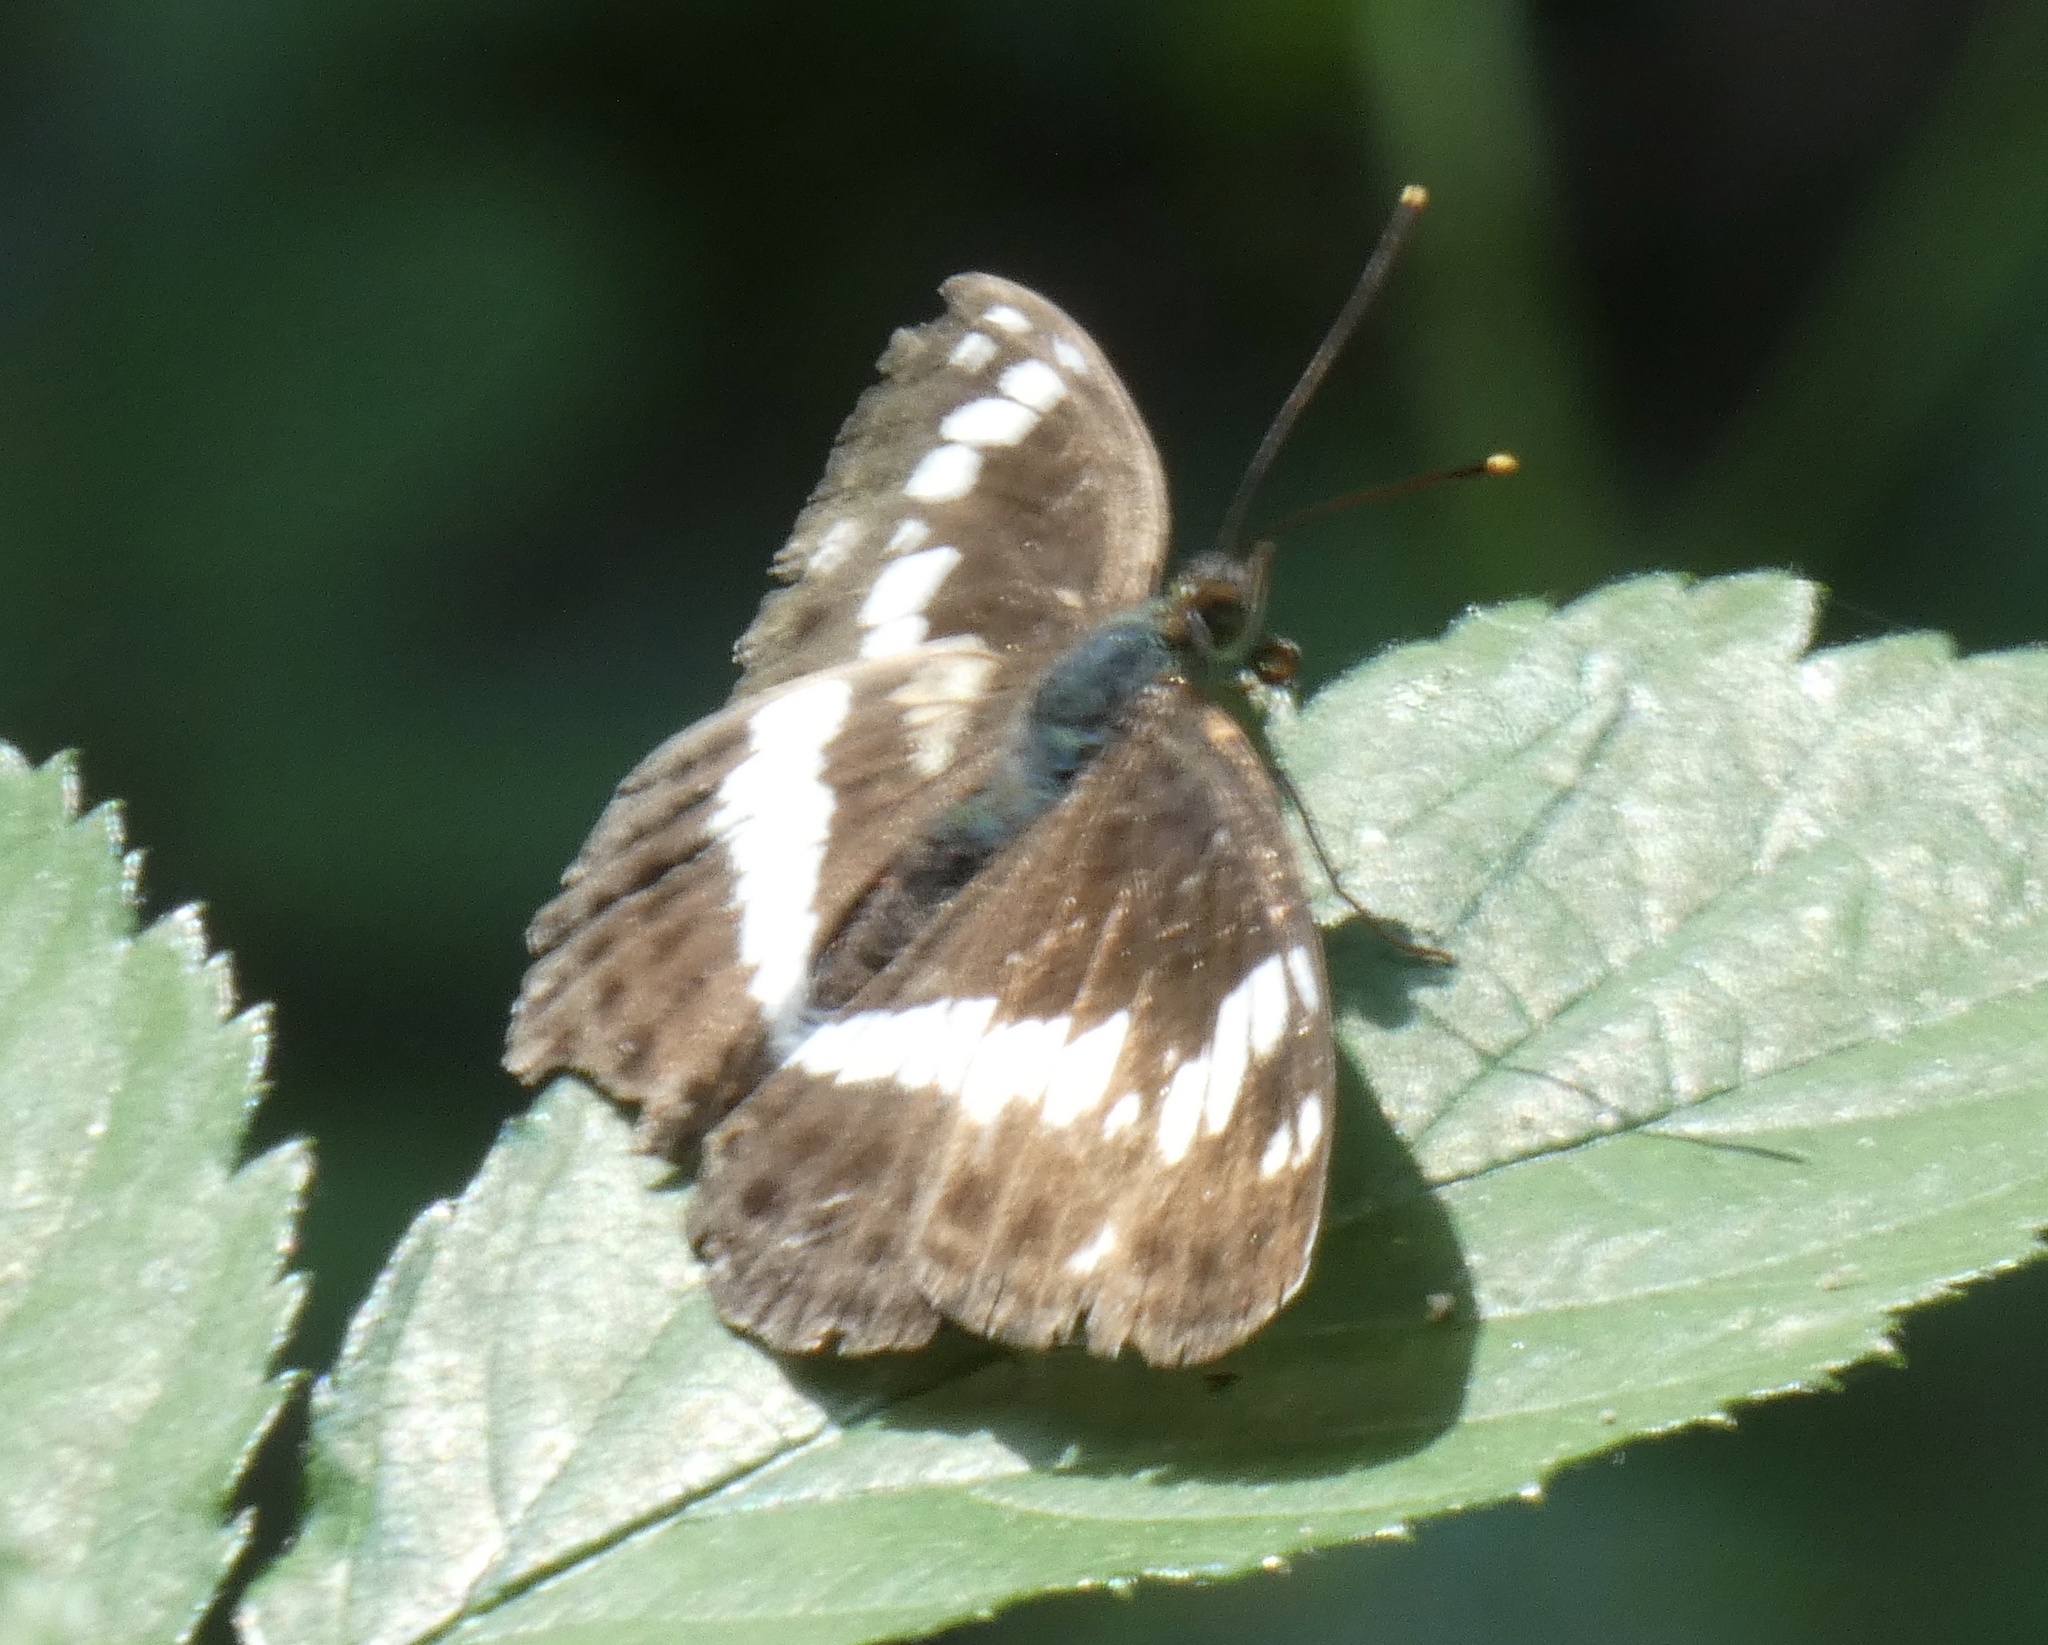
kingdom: Animalia
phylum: Arthropoda
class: Insecta
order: Lepidoptera
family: Nymphalidae
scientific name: Nymphalidae
